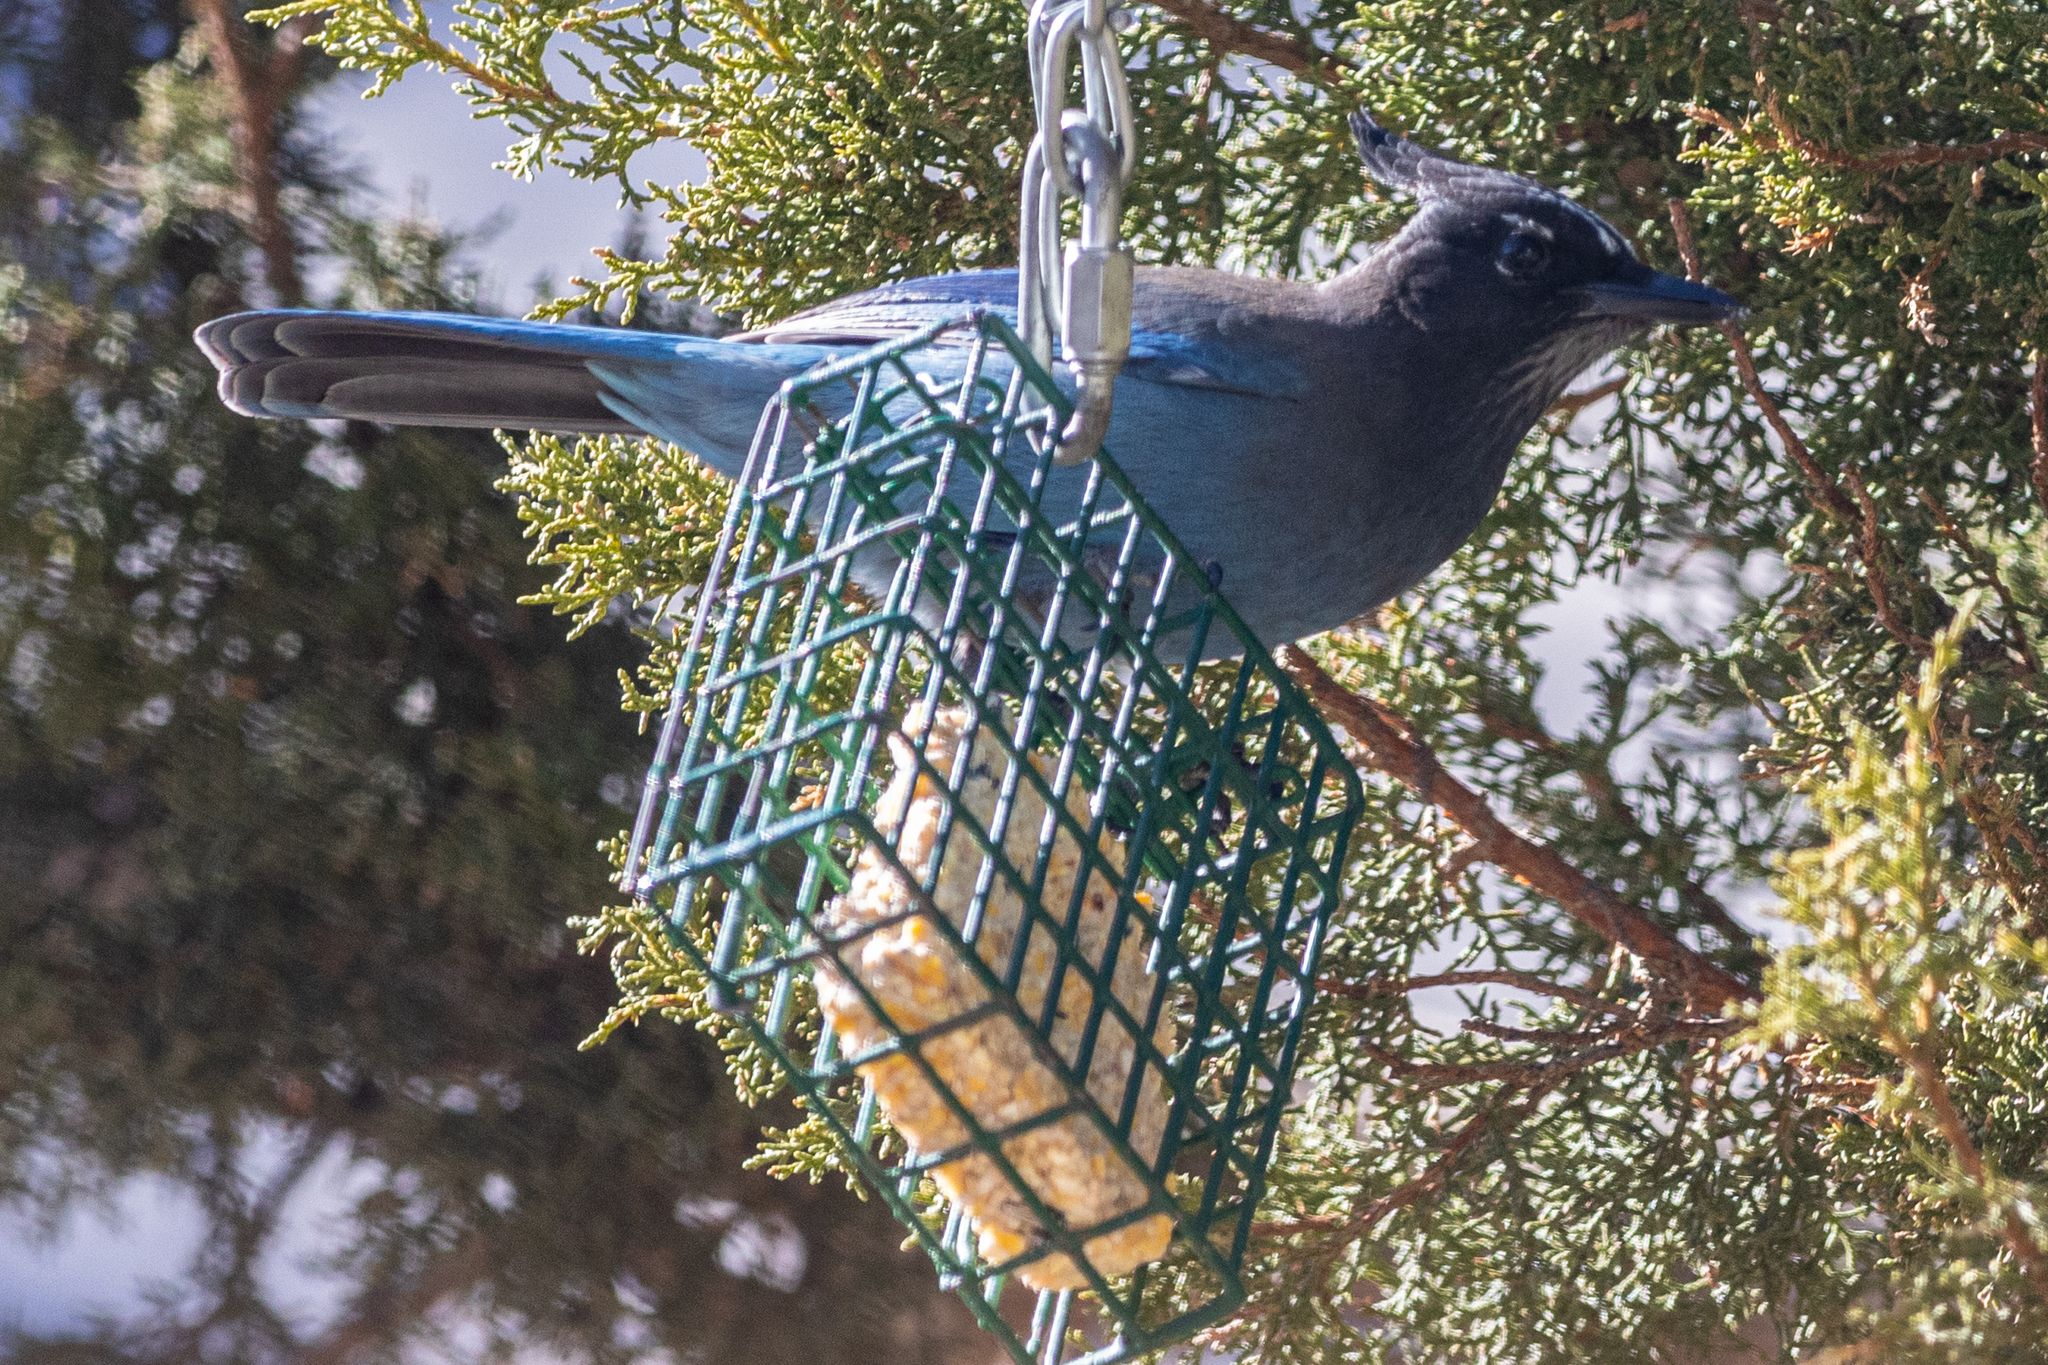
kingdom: Animalia
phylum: Chordata
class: Aves
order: Passeriformes
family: Corvidae
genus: Cyanocitta
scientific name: Cyanocitta stelleri
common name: Steller's jay
